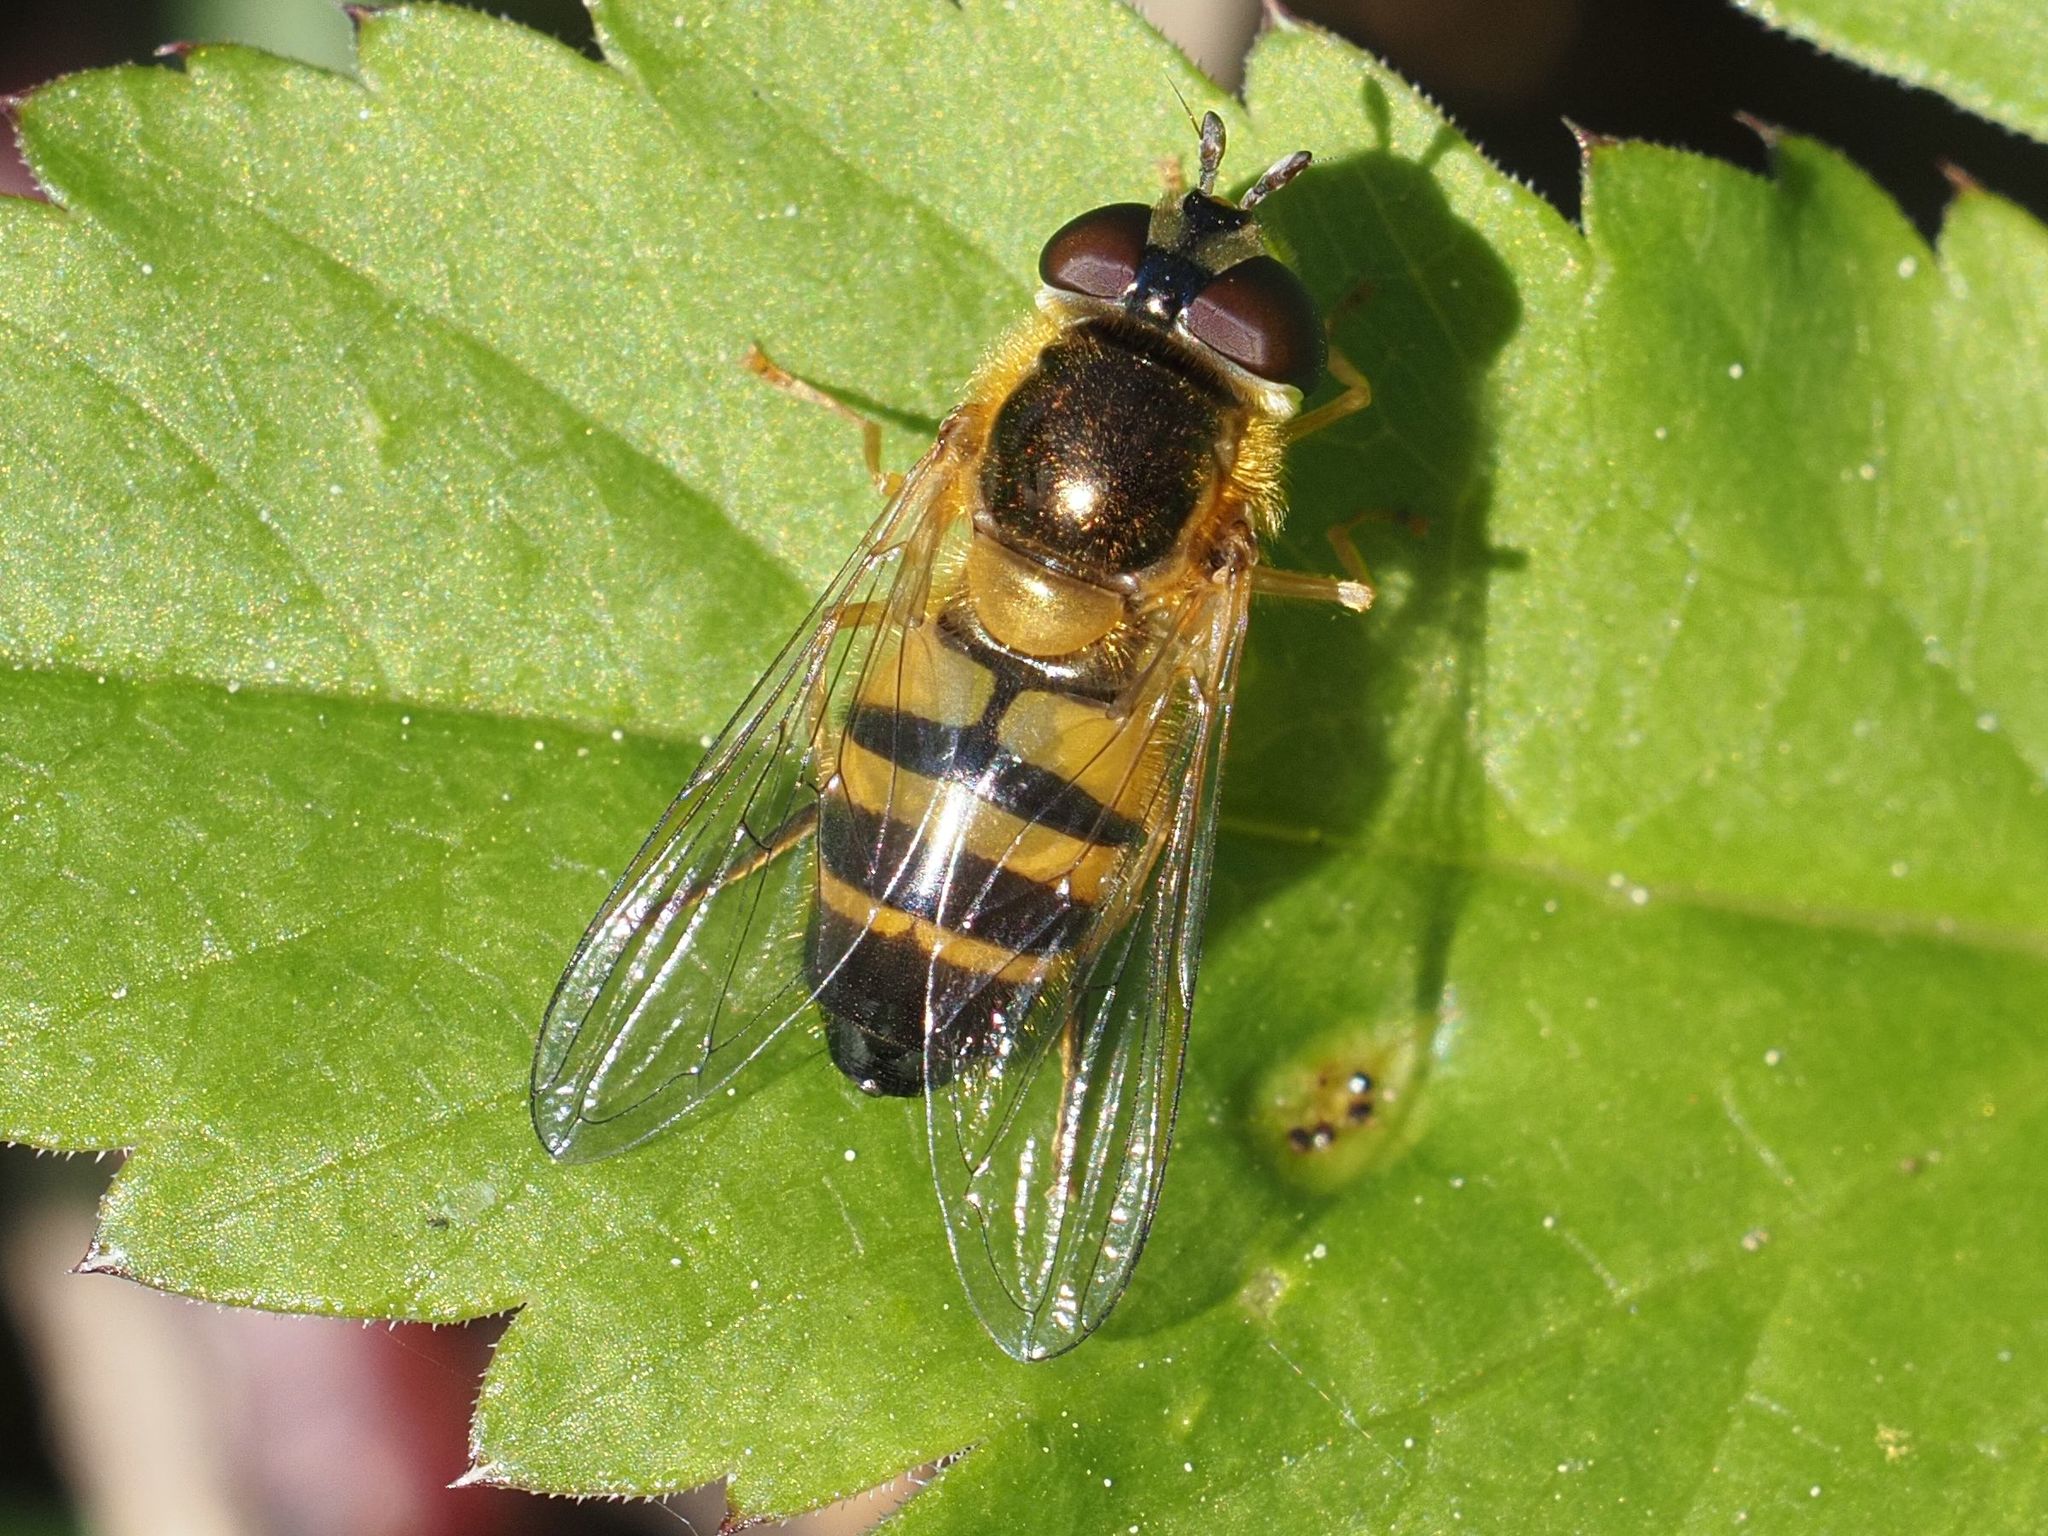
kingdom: Animalia
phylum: Arthropoda
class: Insecta
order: Diptera
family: Syrphidae
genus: Epistrophe
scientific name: Epistrophe eligans
